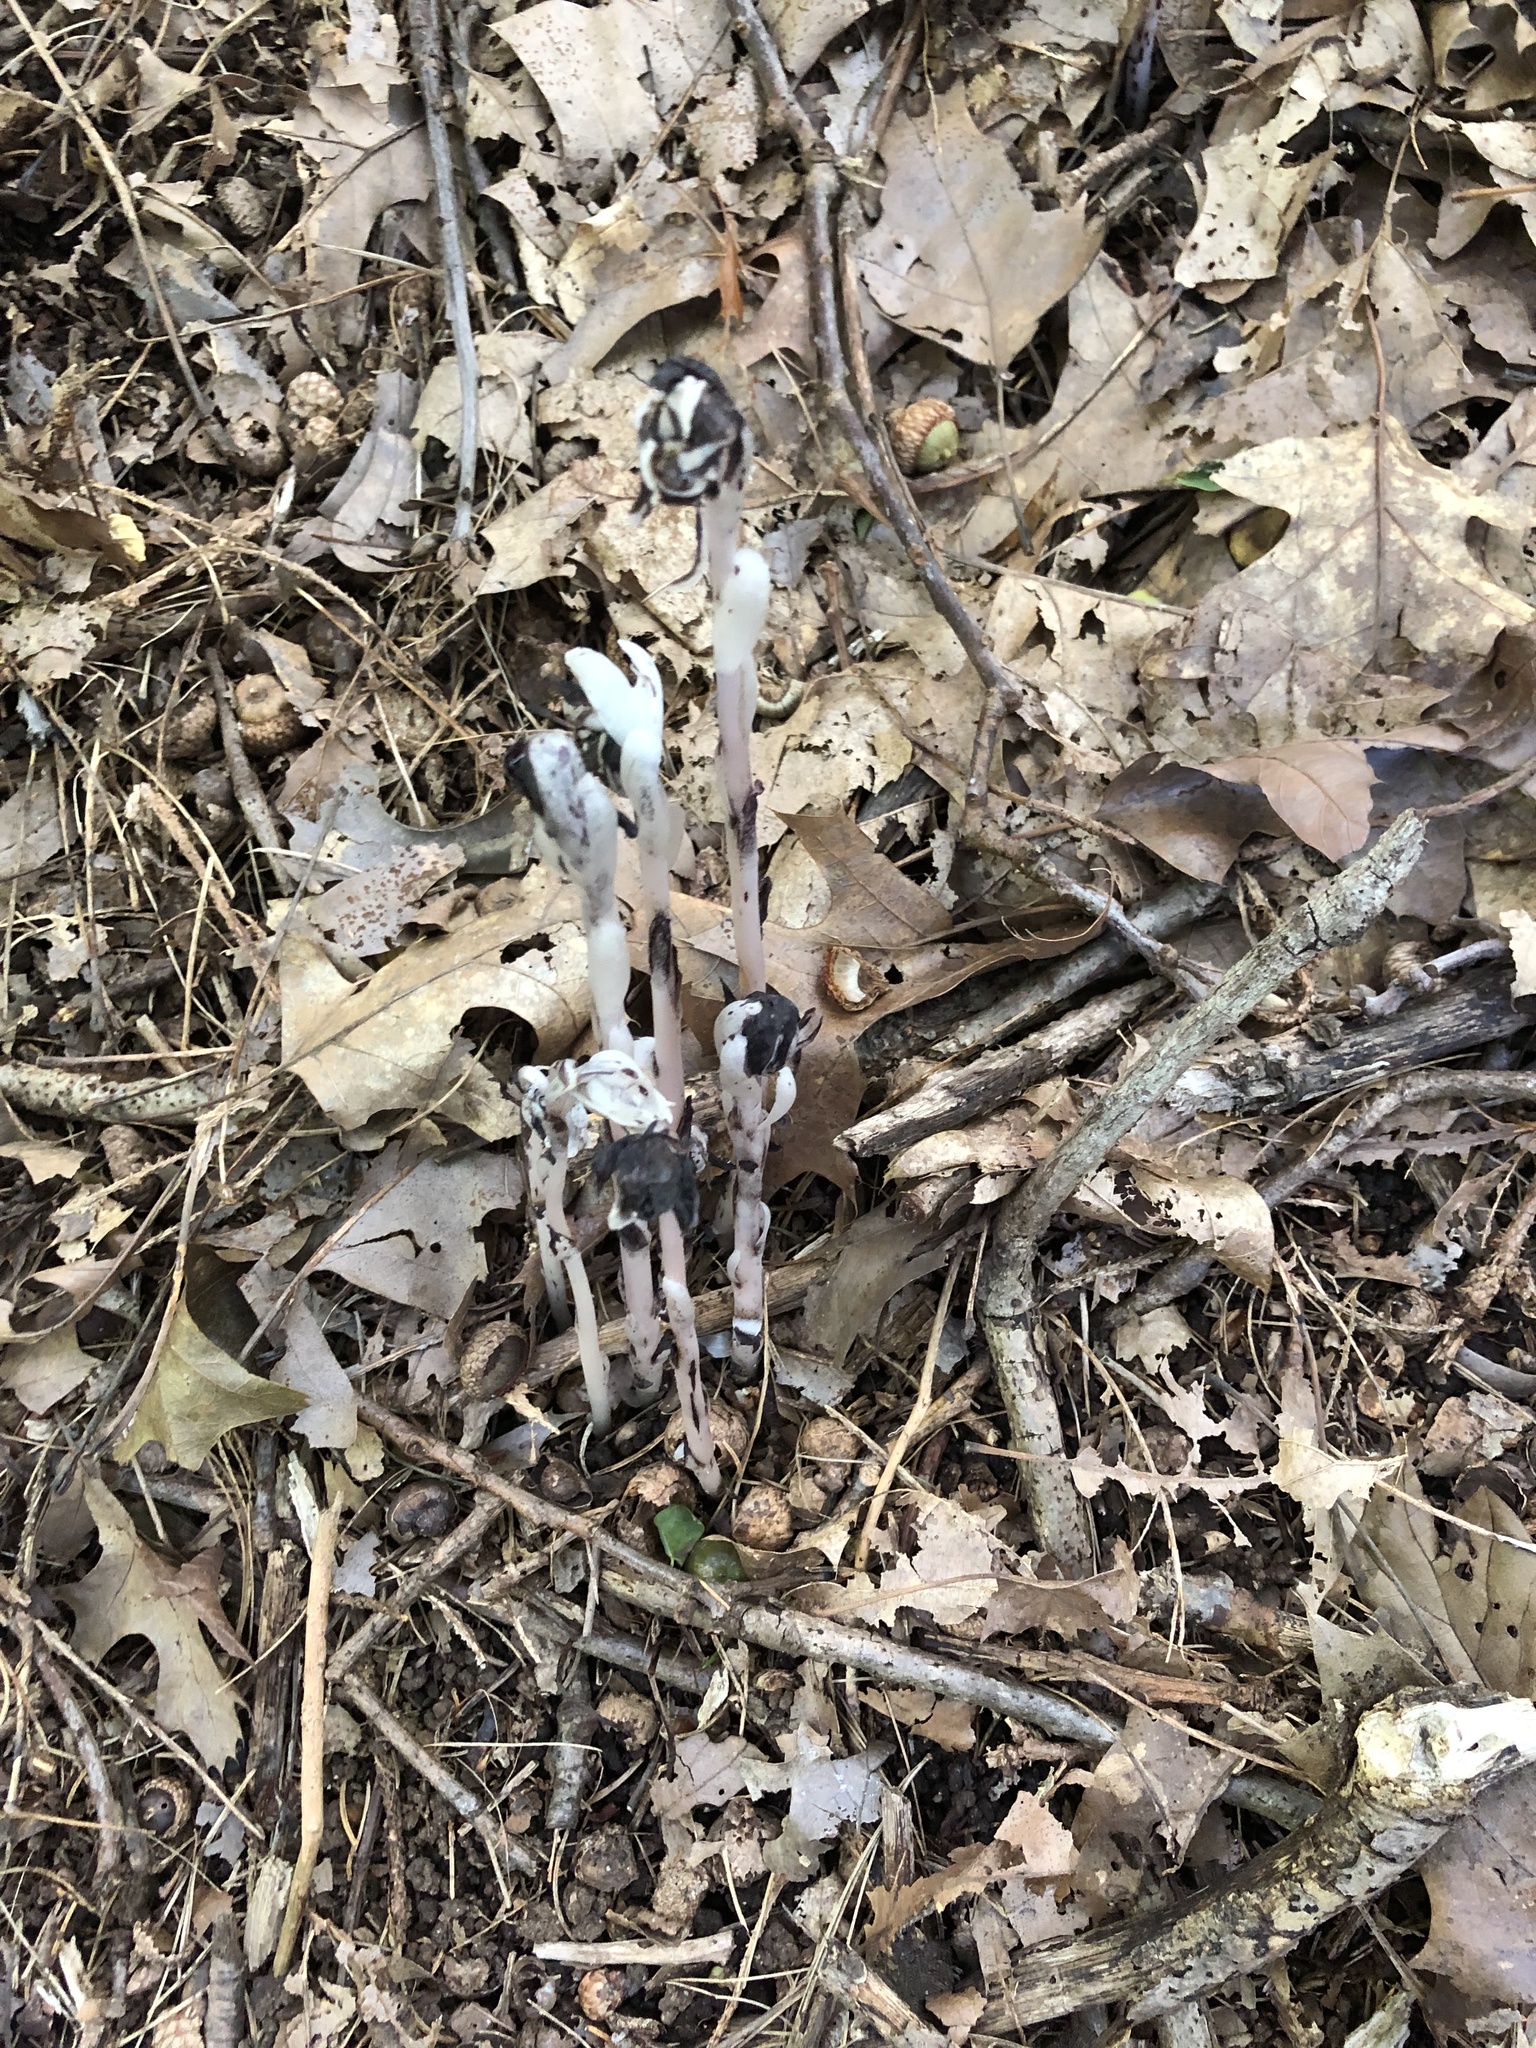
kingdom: Plantae
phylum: Tracheophyta
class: Magnoliopsida
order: Ericales
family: Ericaceae
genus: Monotropa
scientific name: Monotropa uniflora
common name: Convulsion root
